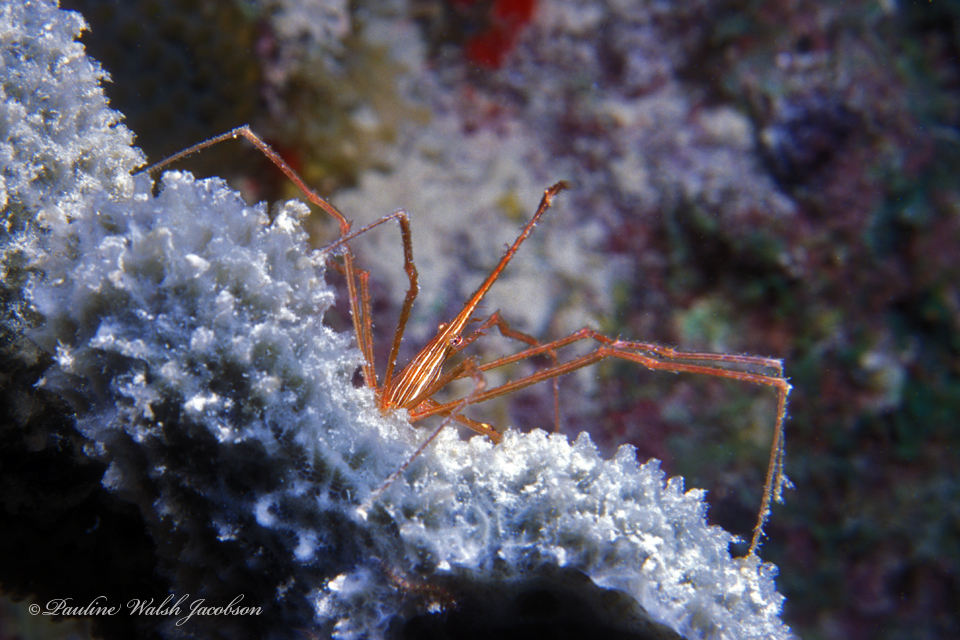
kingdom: Animalia
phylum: Arthropoda
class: Malacostraca
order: Decapoda
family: Inachoididae
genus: Stenorhynchus
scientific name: Stenorhynchus seticornis
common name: Arrow crab
